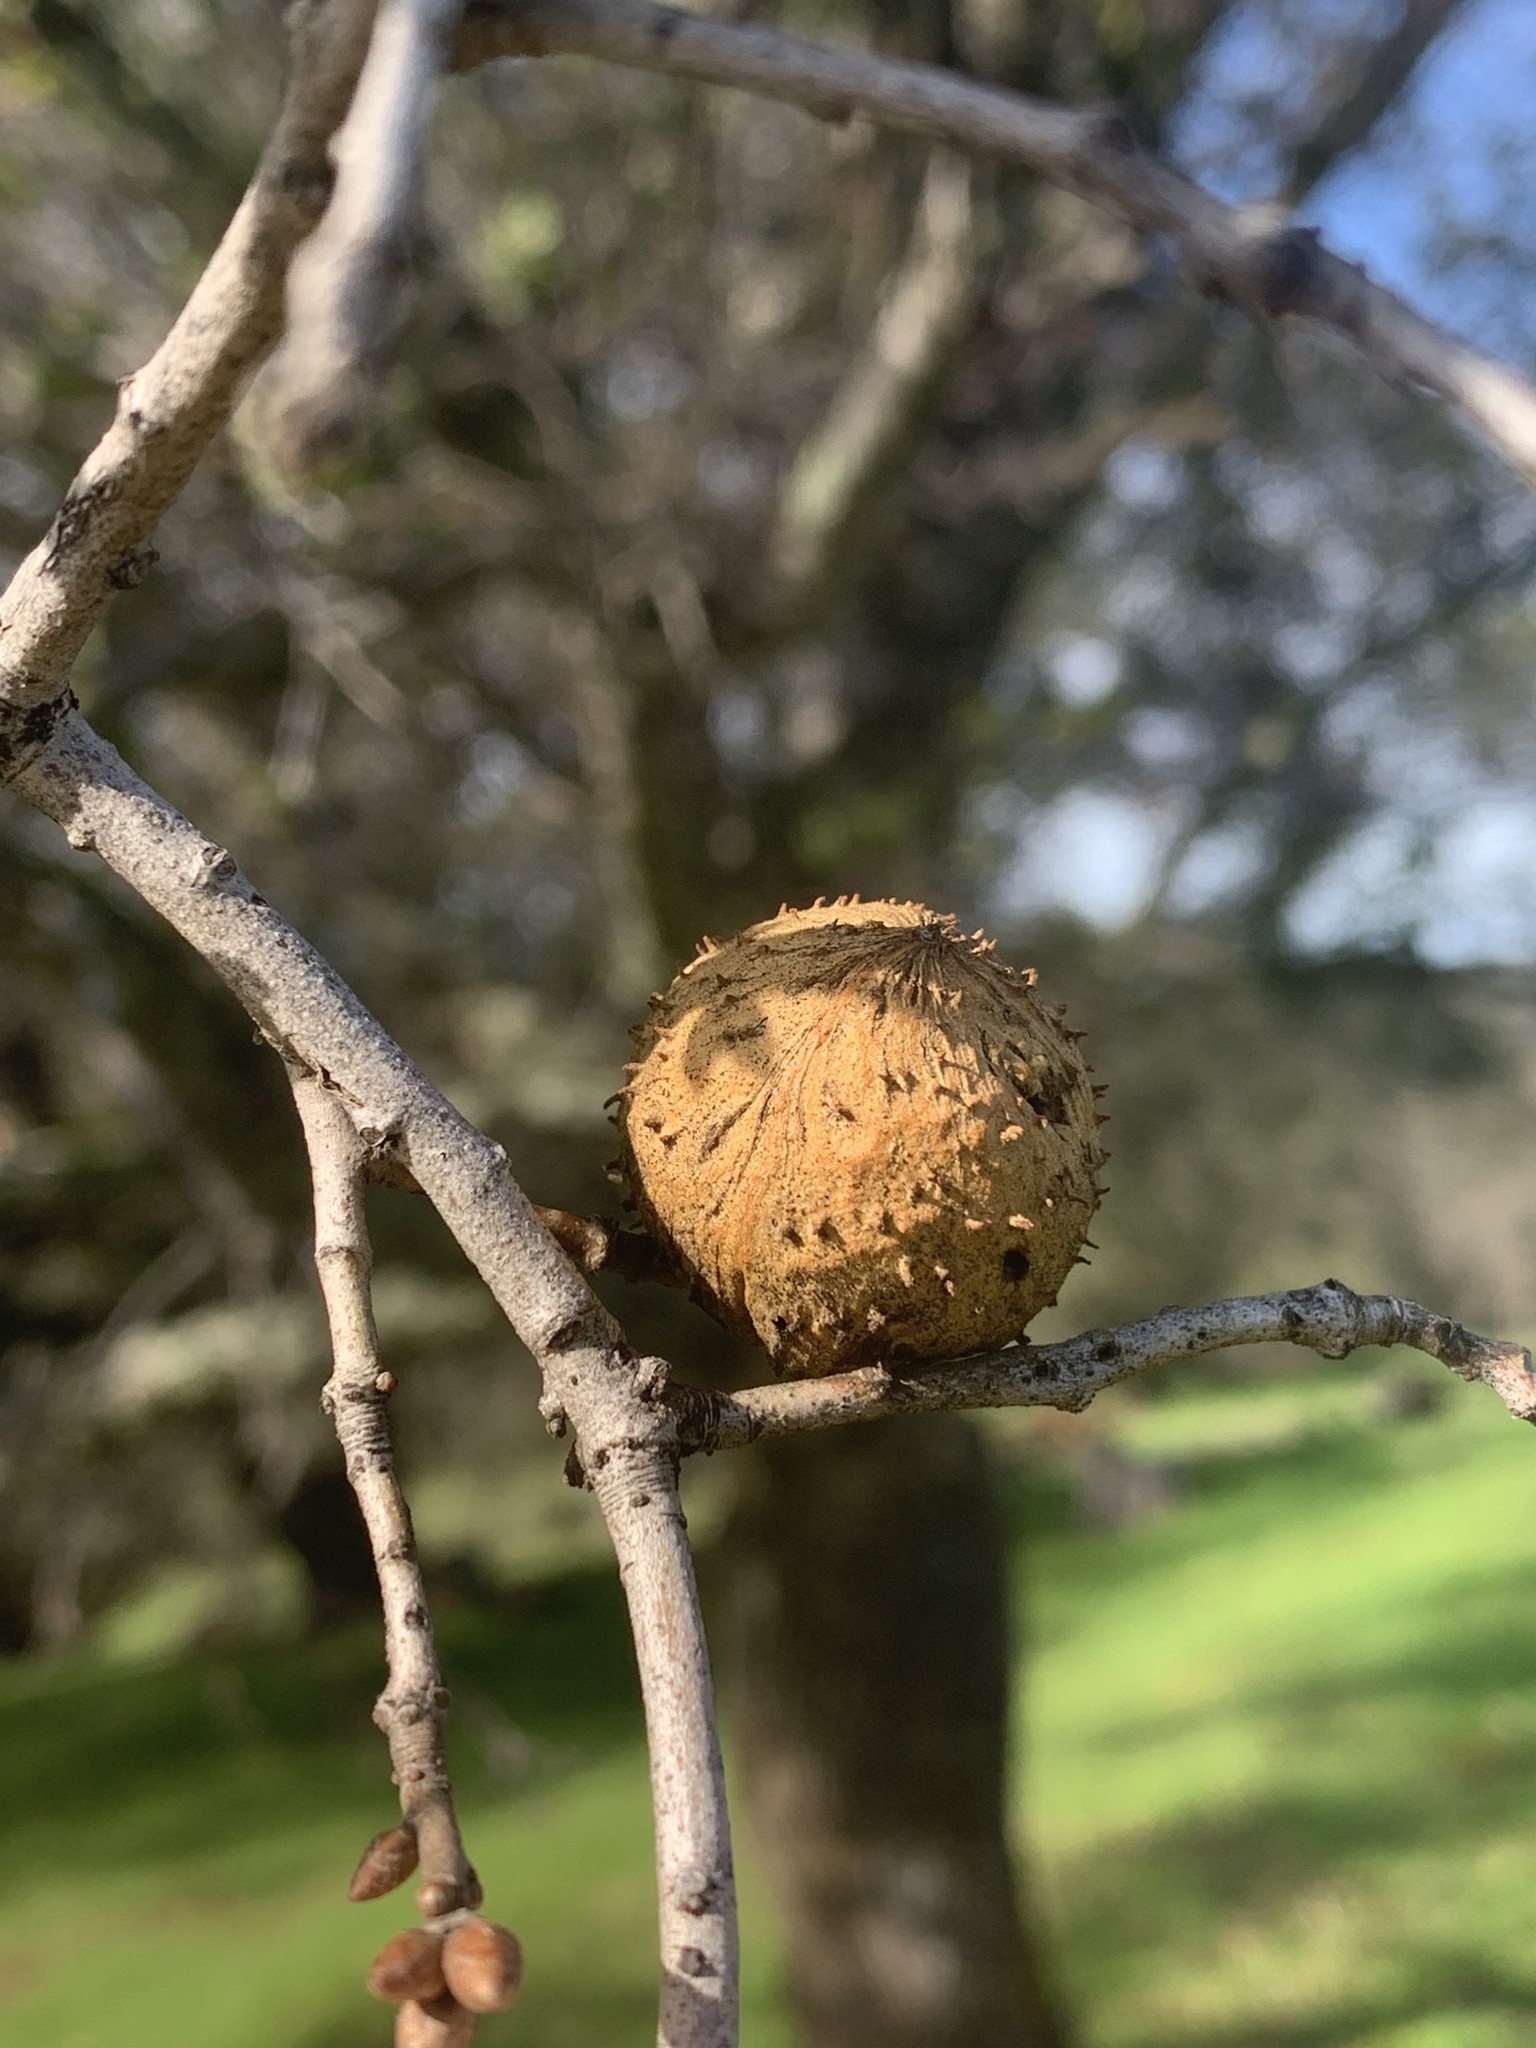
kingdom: Animalia
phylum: Arthropoda
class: Insecta
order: Hymenoptera
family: Cynipidae
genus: Amphibolips
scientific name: Amphibolips quercuspomiformis
